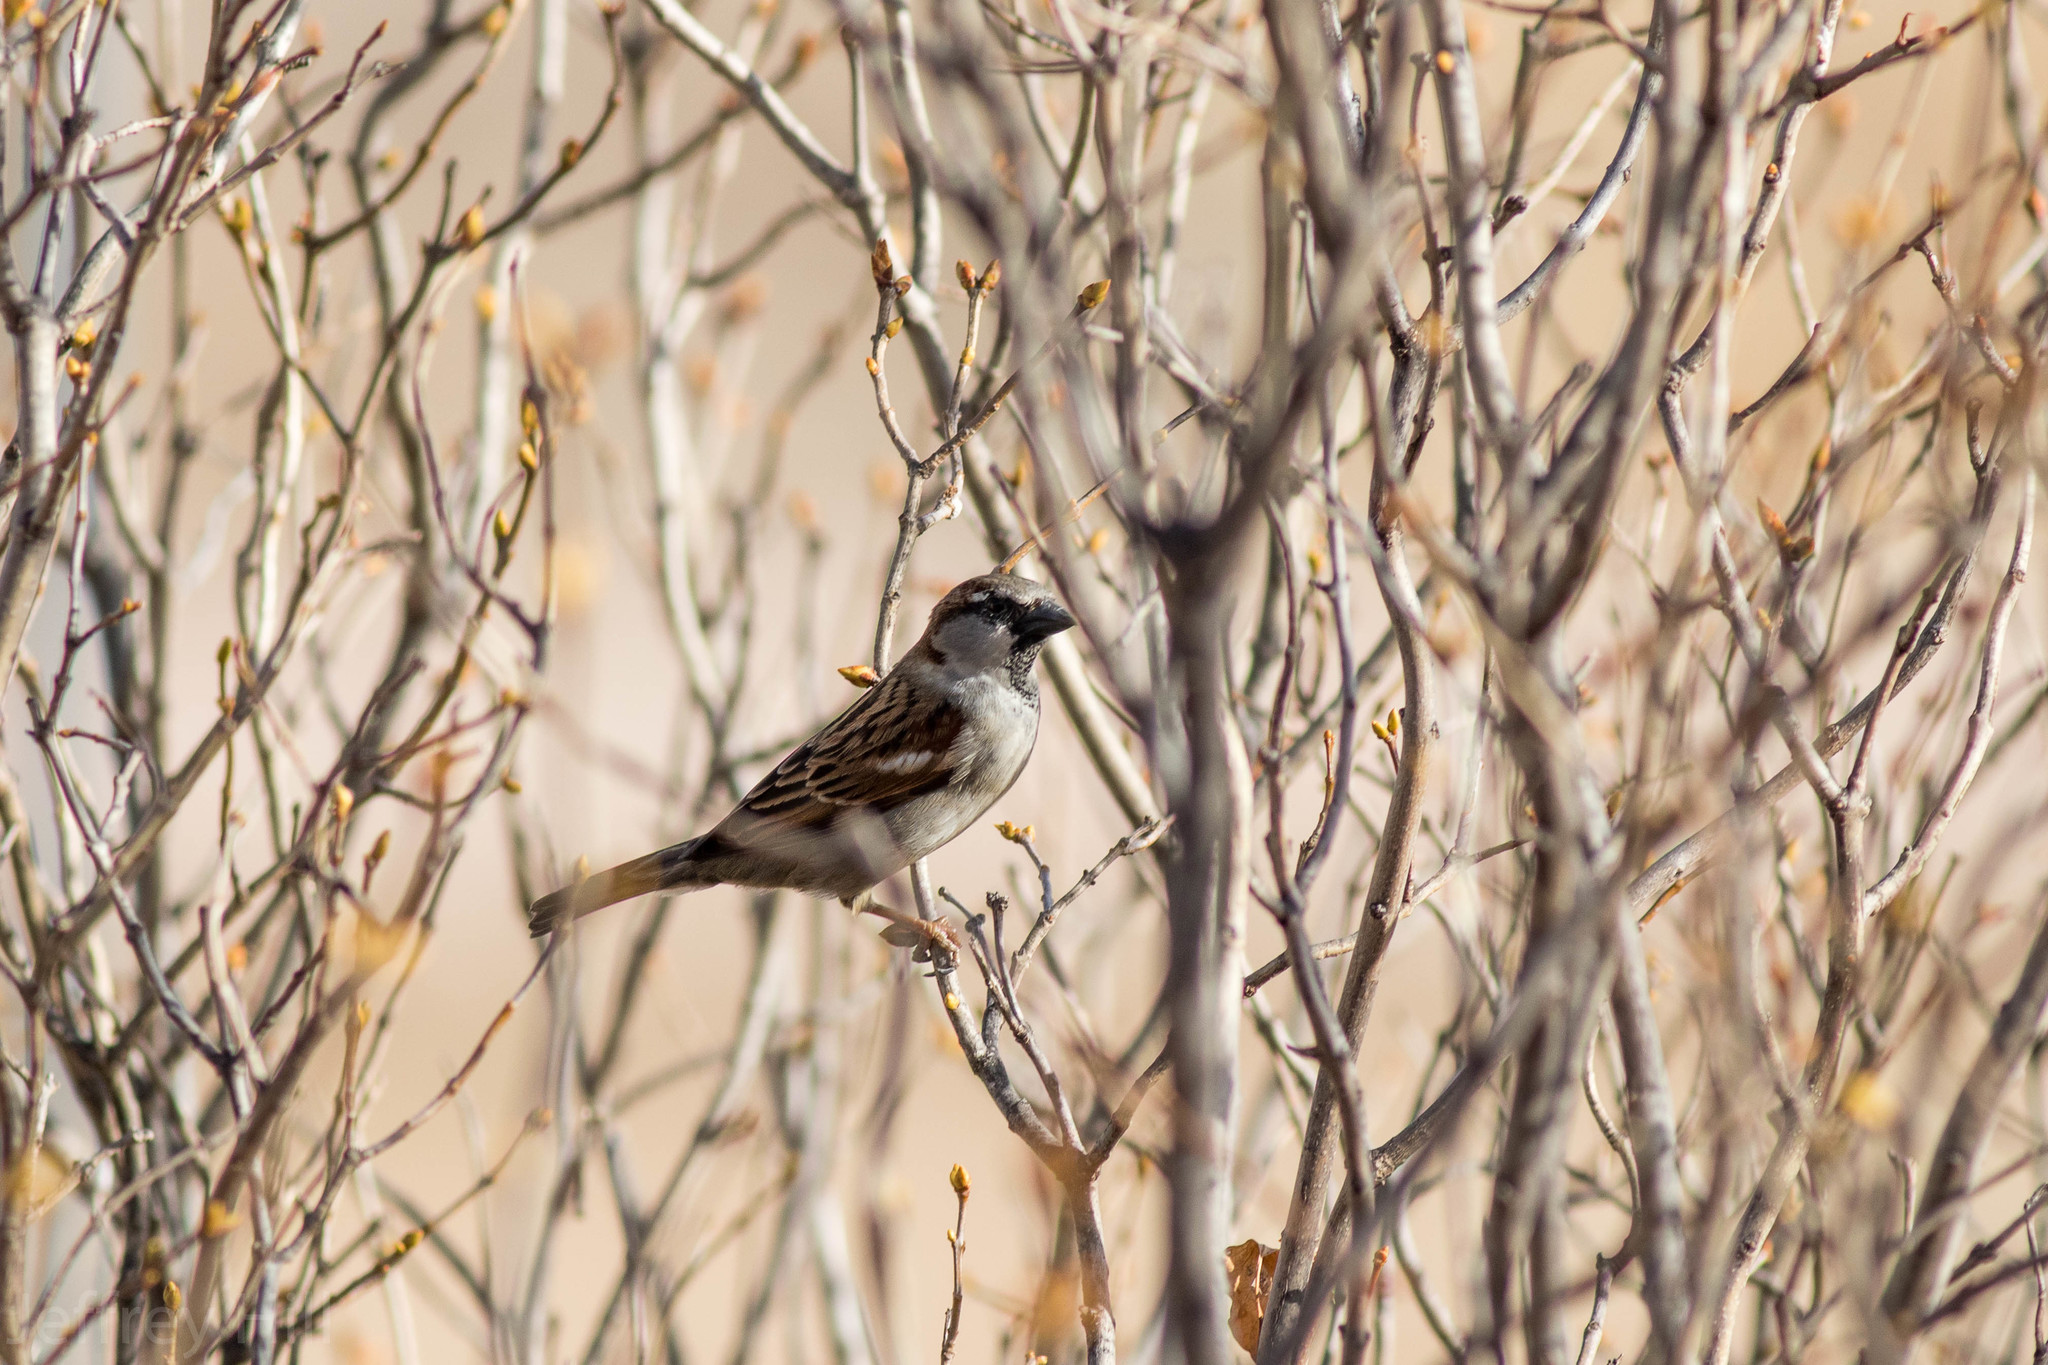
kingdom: Animalia
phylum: Chordata
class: Aves
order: Passeriformes
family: Passeridae
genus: Passer
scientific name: Passer domesticus
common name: House sparrow
